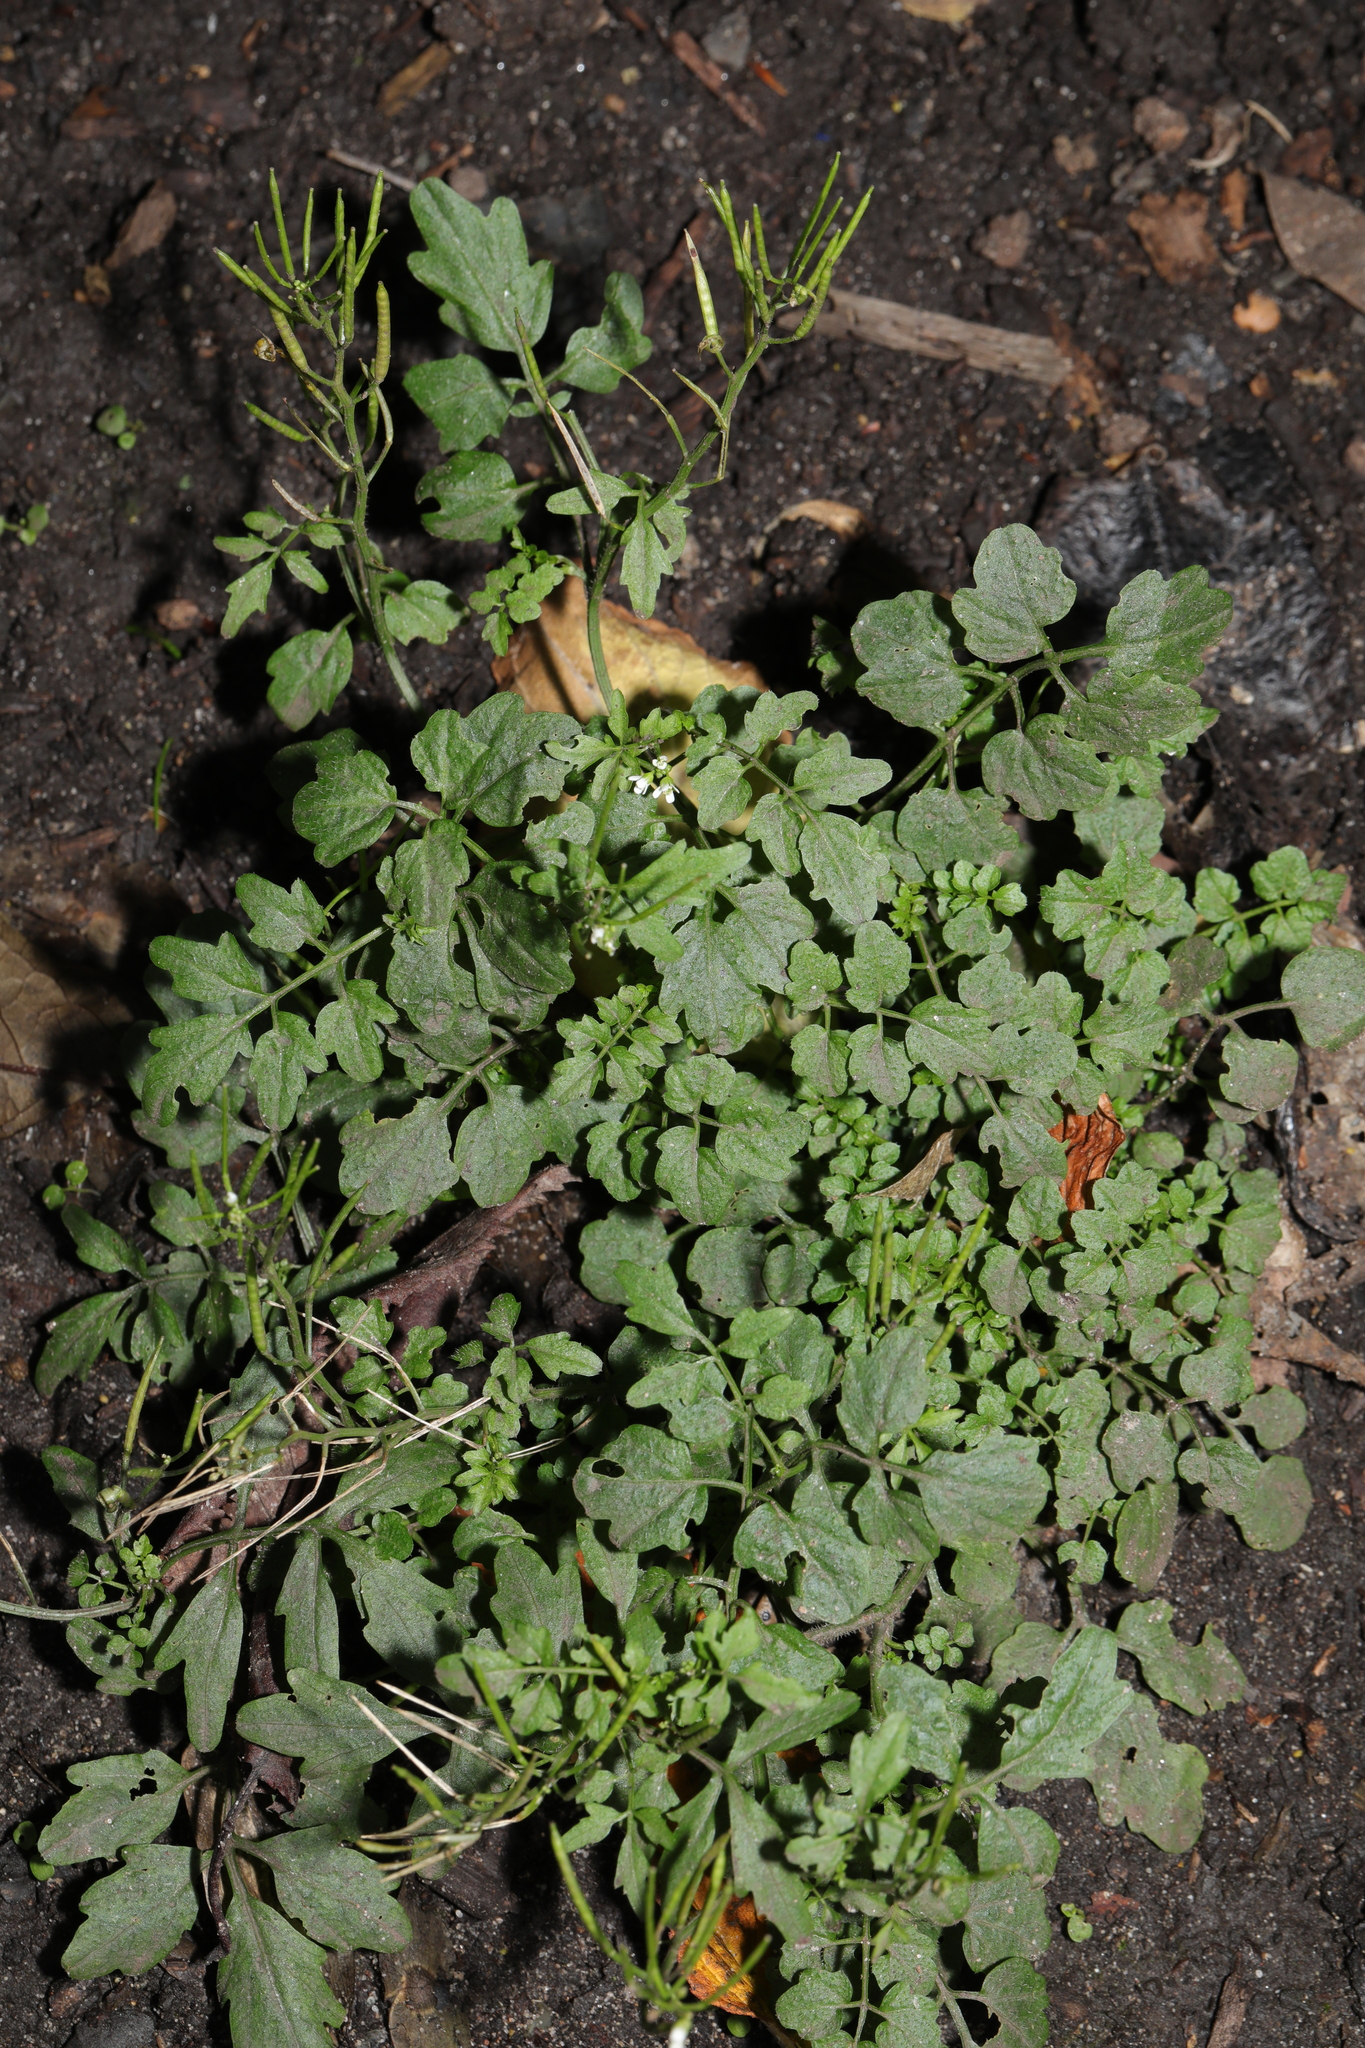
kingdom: Plantae
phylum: Tracheophyta
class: Magnoliopsida
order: Brassicales
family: Brassicaceae
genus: Cardamine
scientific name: Cardamine flexuosa
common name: Woodland bittercress
